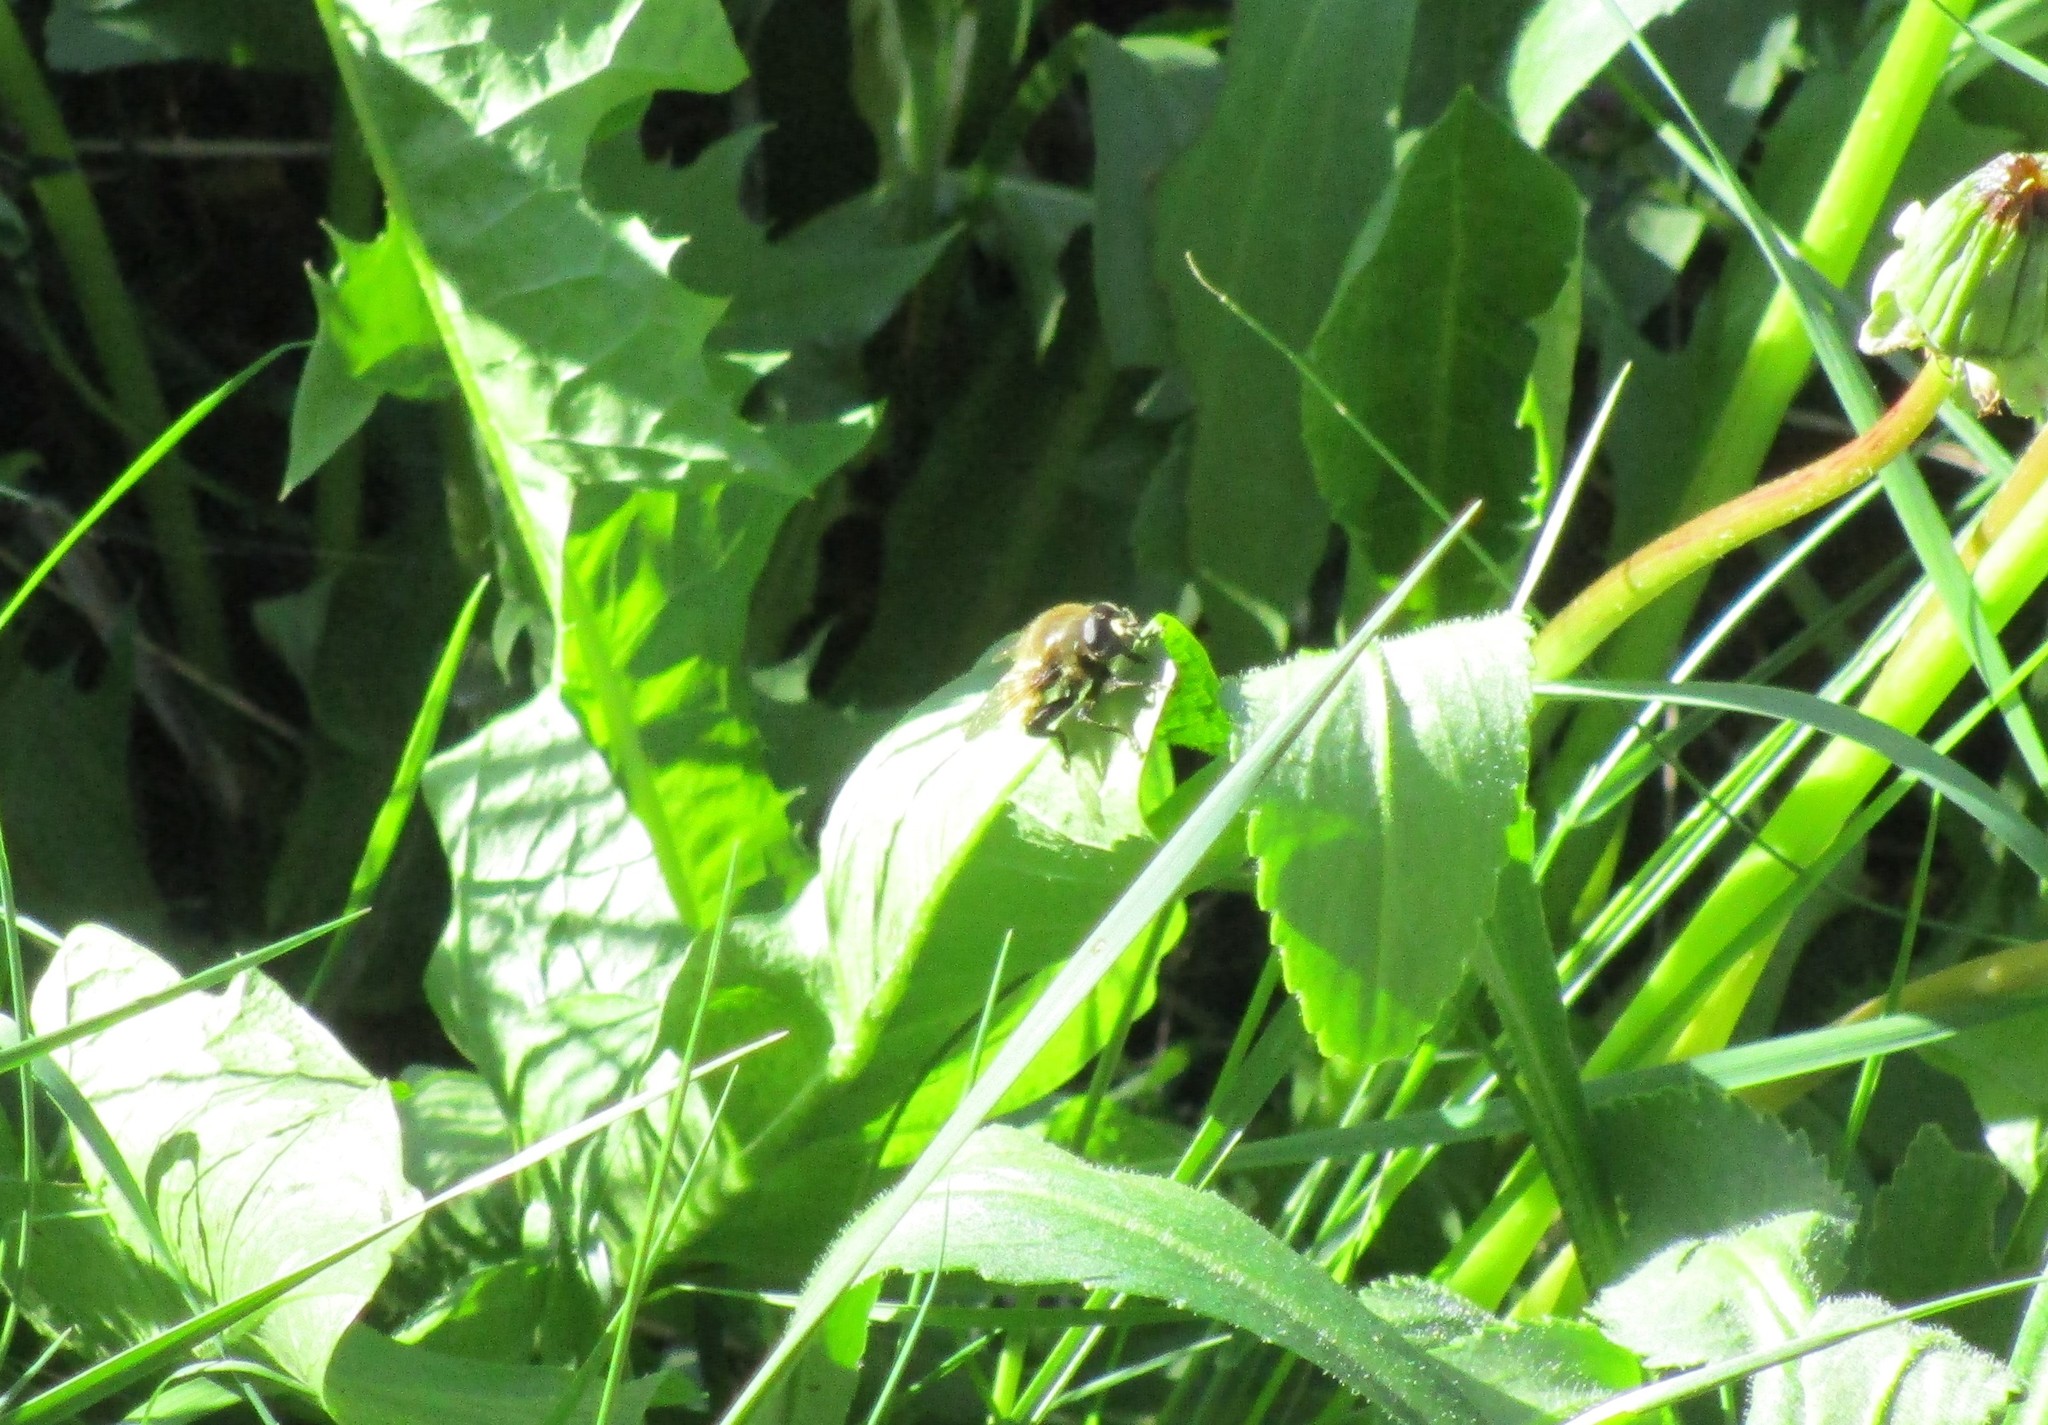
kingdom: Animalia
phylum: Arthropoda
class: Insecta
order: Diptera
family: Syrphidae
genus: Merodon
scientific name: Merodon equestris
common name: Greater bulb-fly
